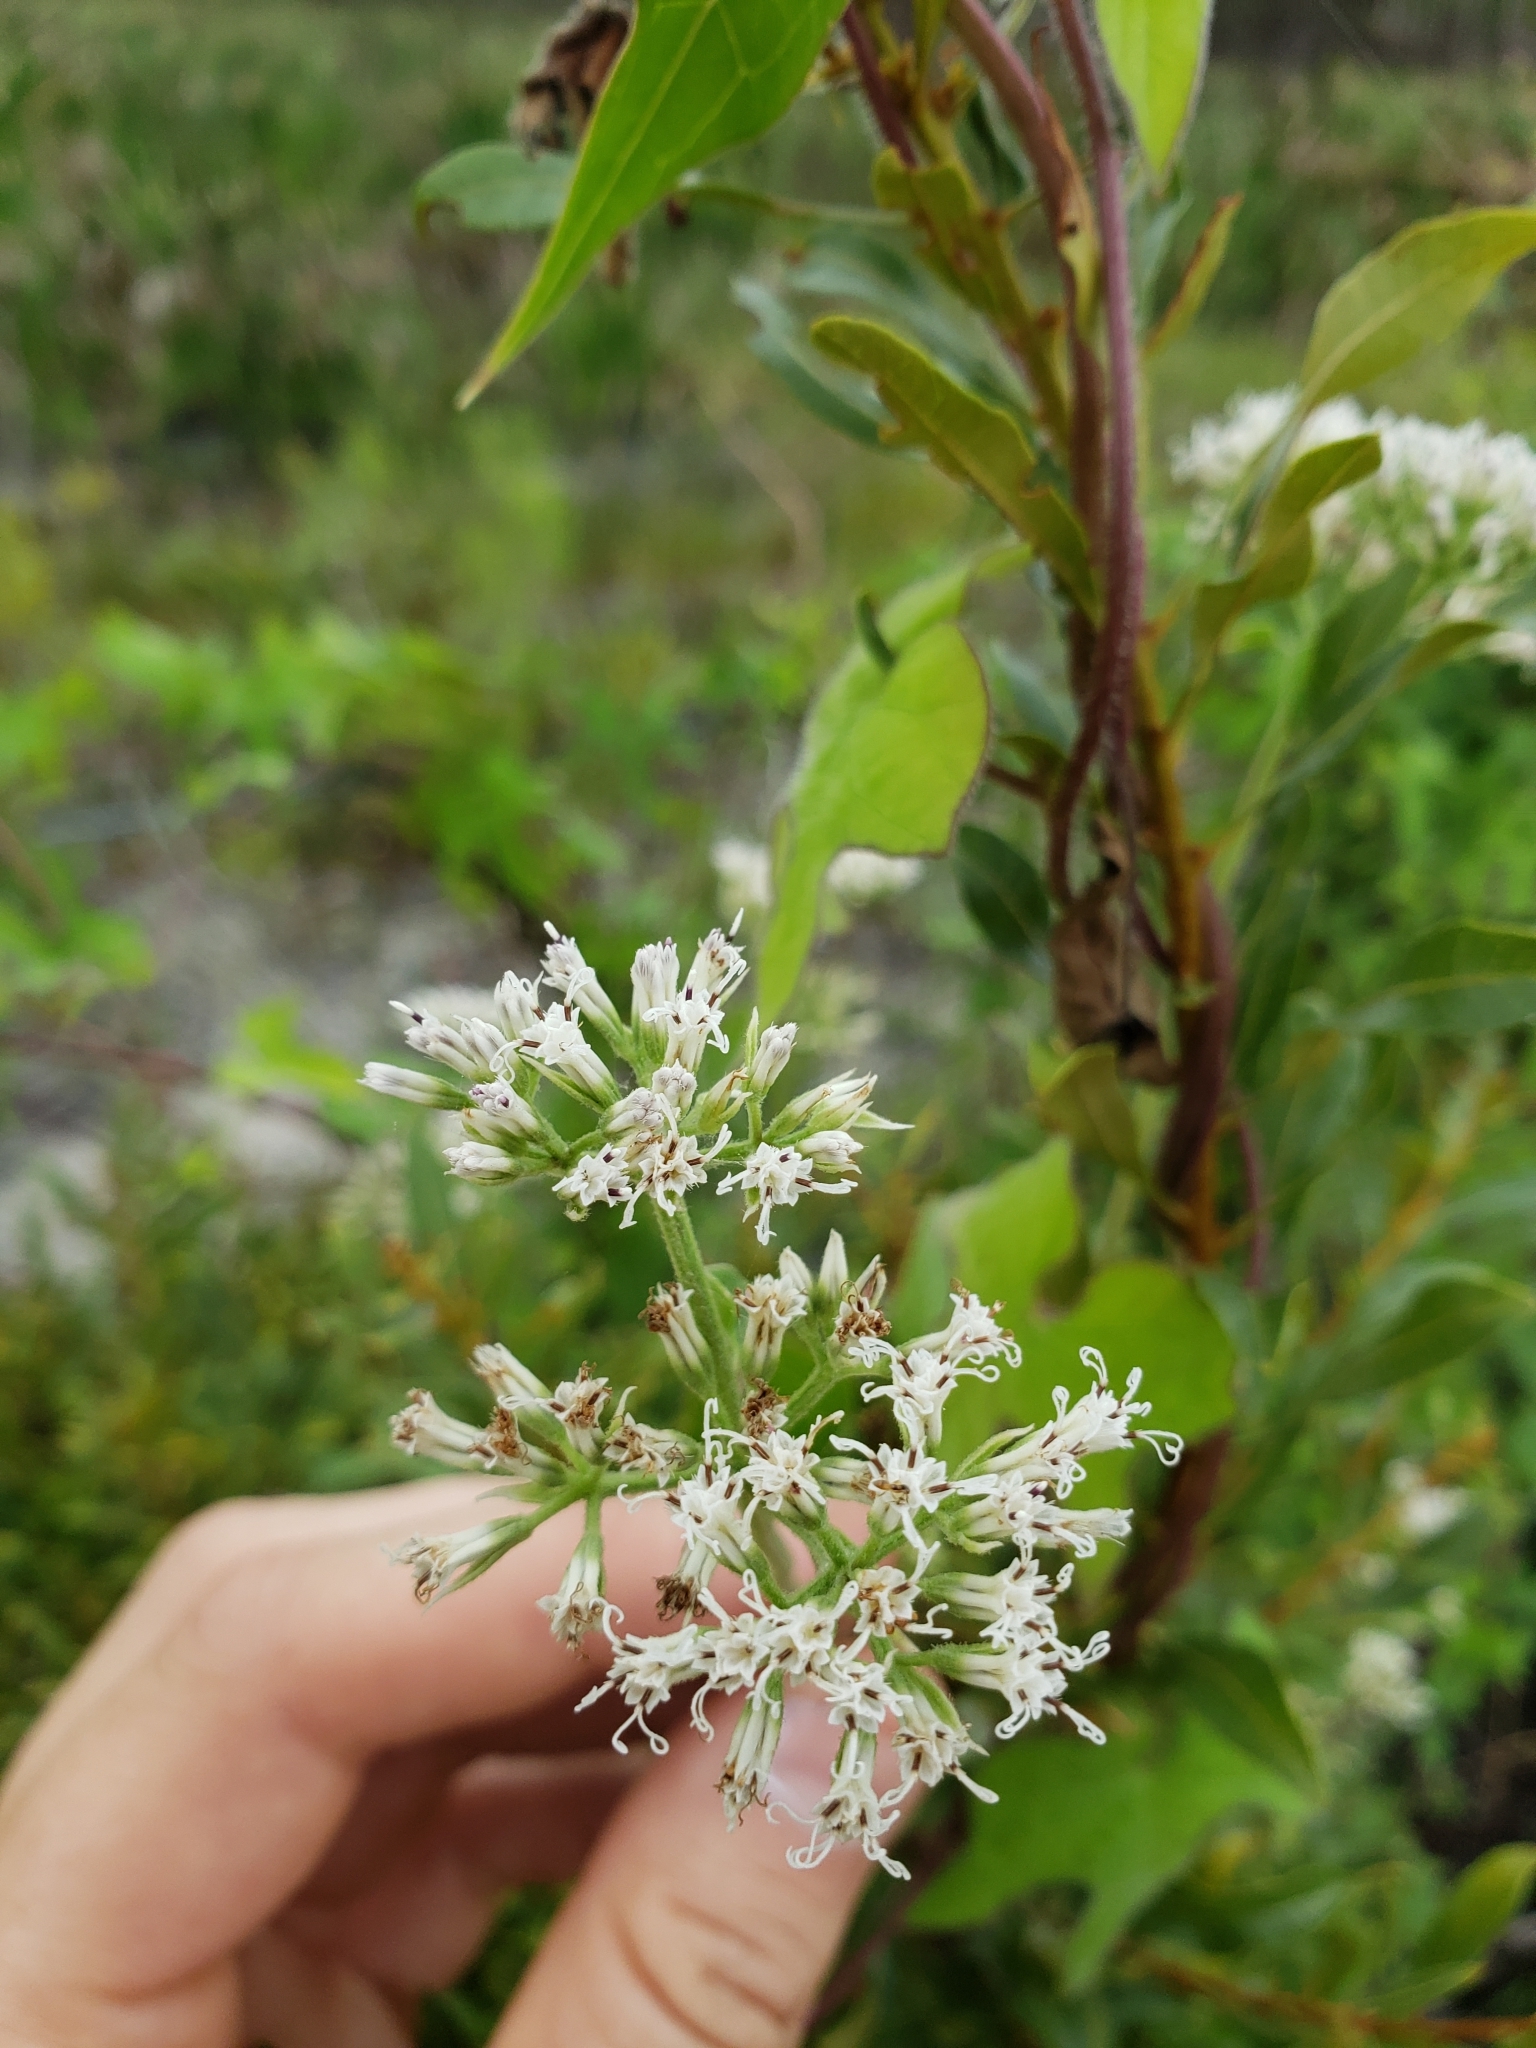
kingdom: Plantae
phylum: Tracheophyta
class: Magnoliopsida
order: Asterales
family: Asteraceae
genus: Mikania
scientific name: Mikania scandens
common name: Climbing hempvine
